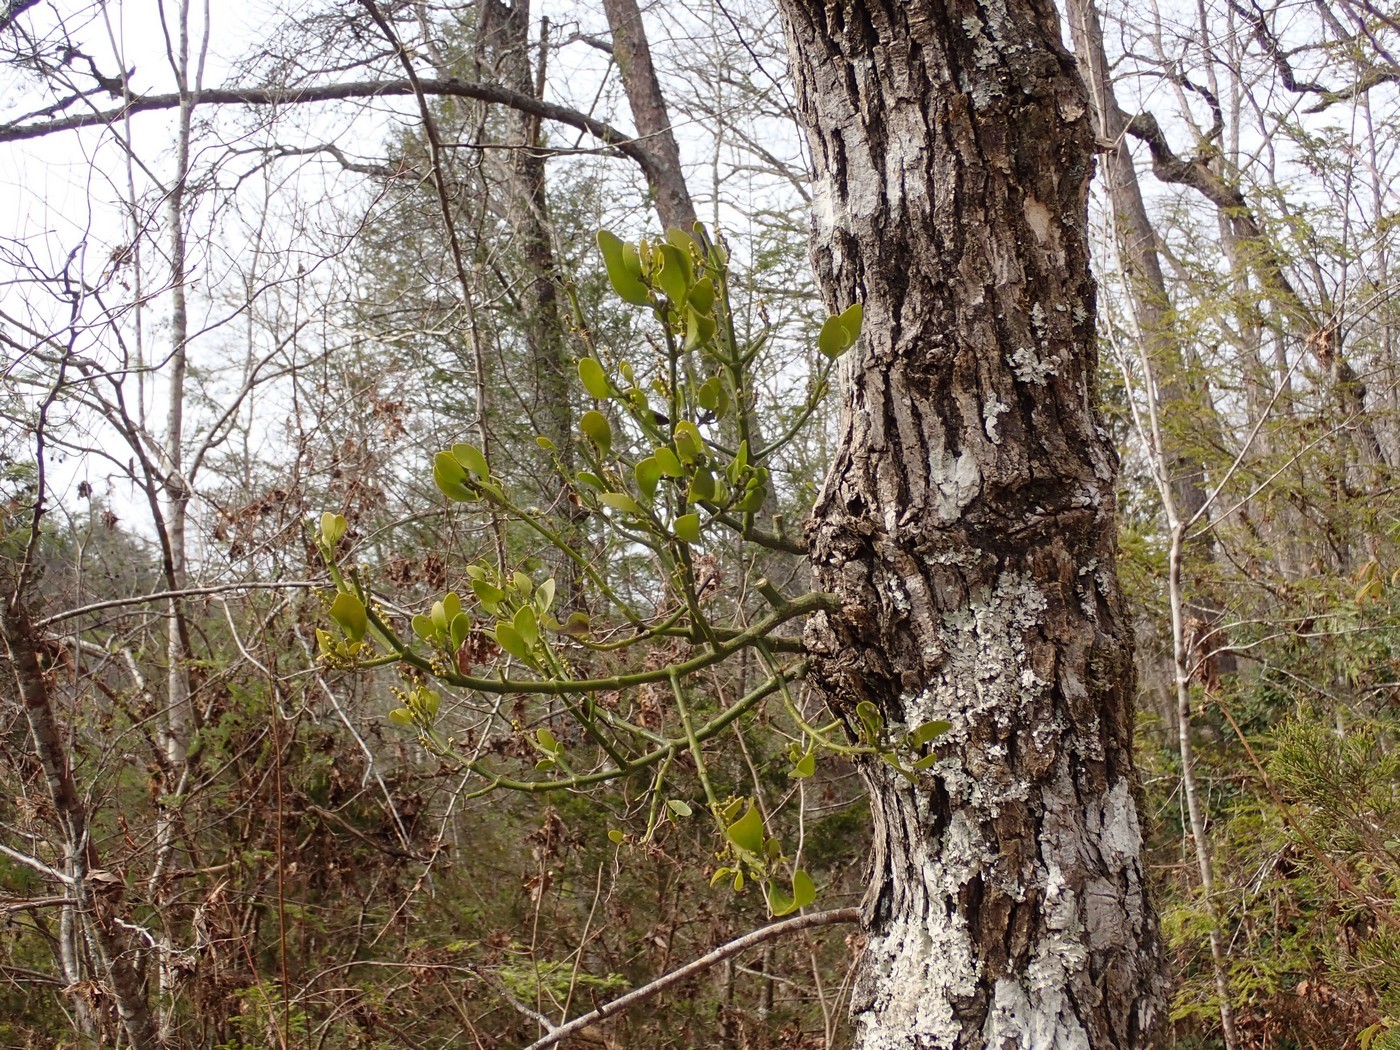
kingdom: Plantae
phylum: Tracheophyta
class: Magnoliopsida
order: Santalales
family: Viscaceae
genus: Phoradendron
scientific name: Phoradendron leucarpum
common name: Pacific mistletoe
